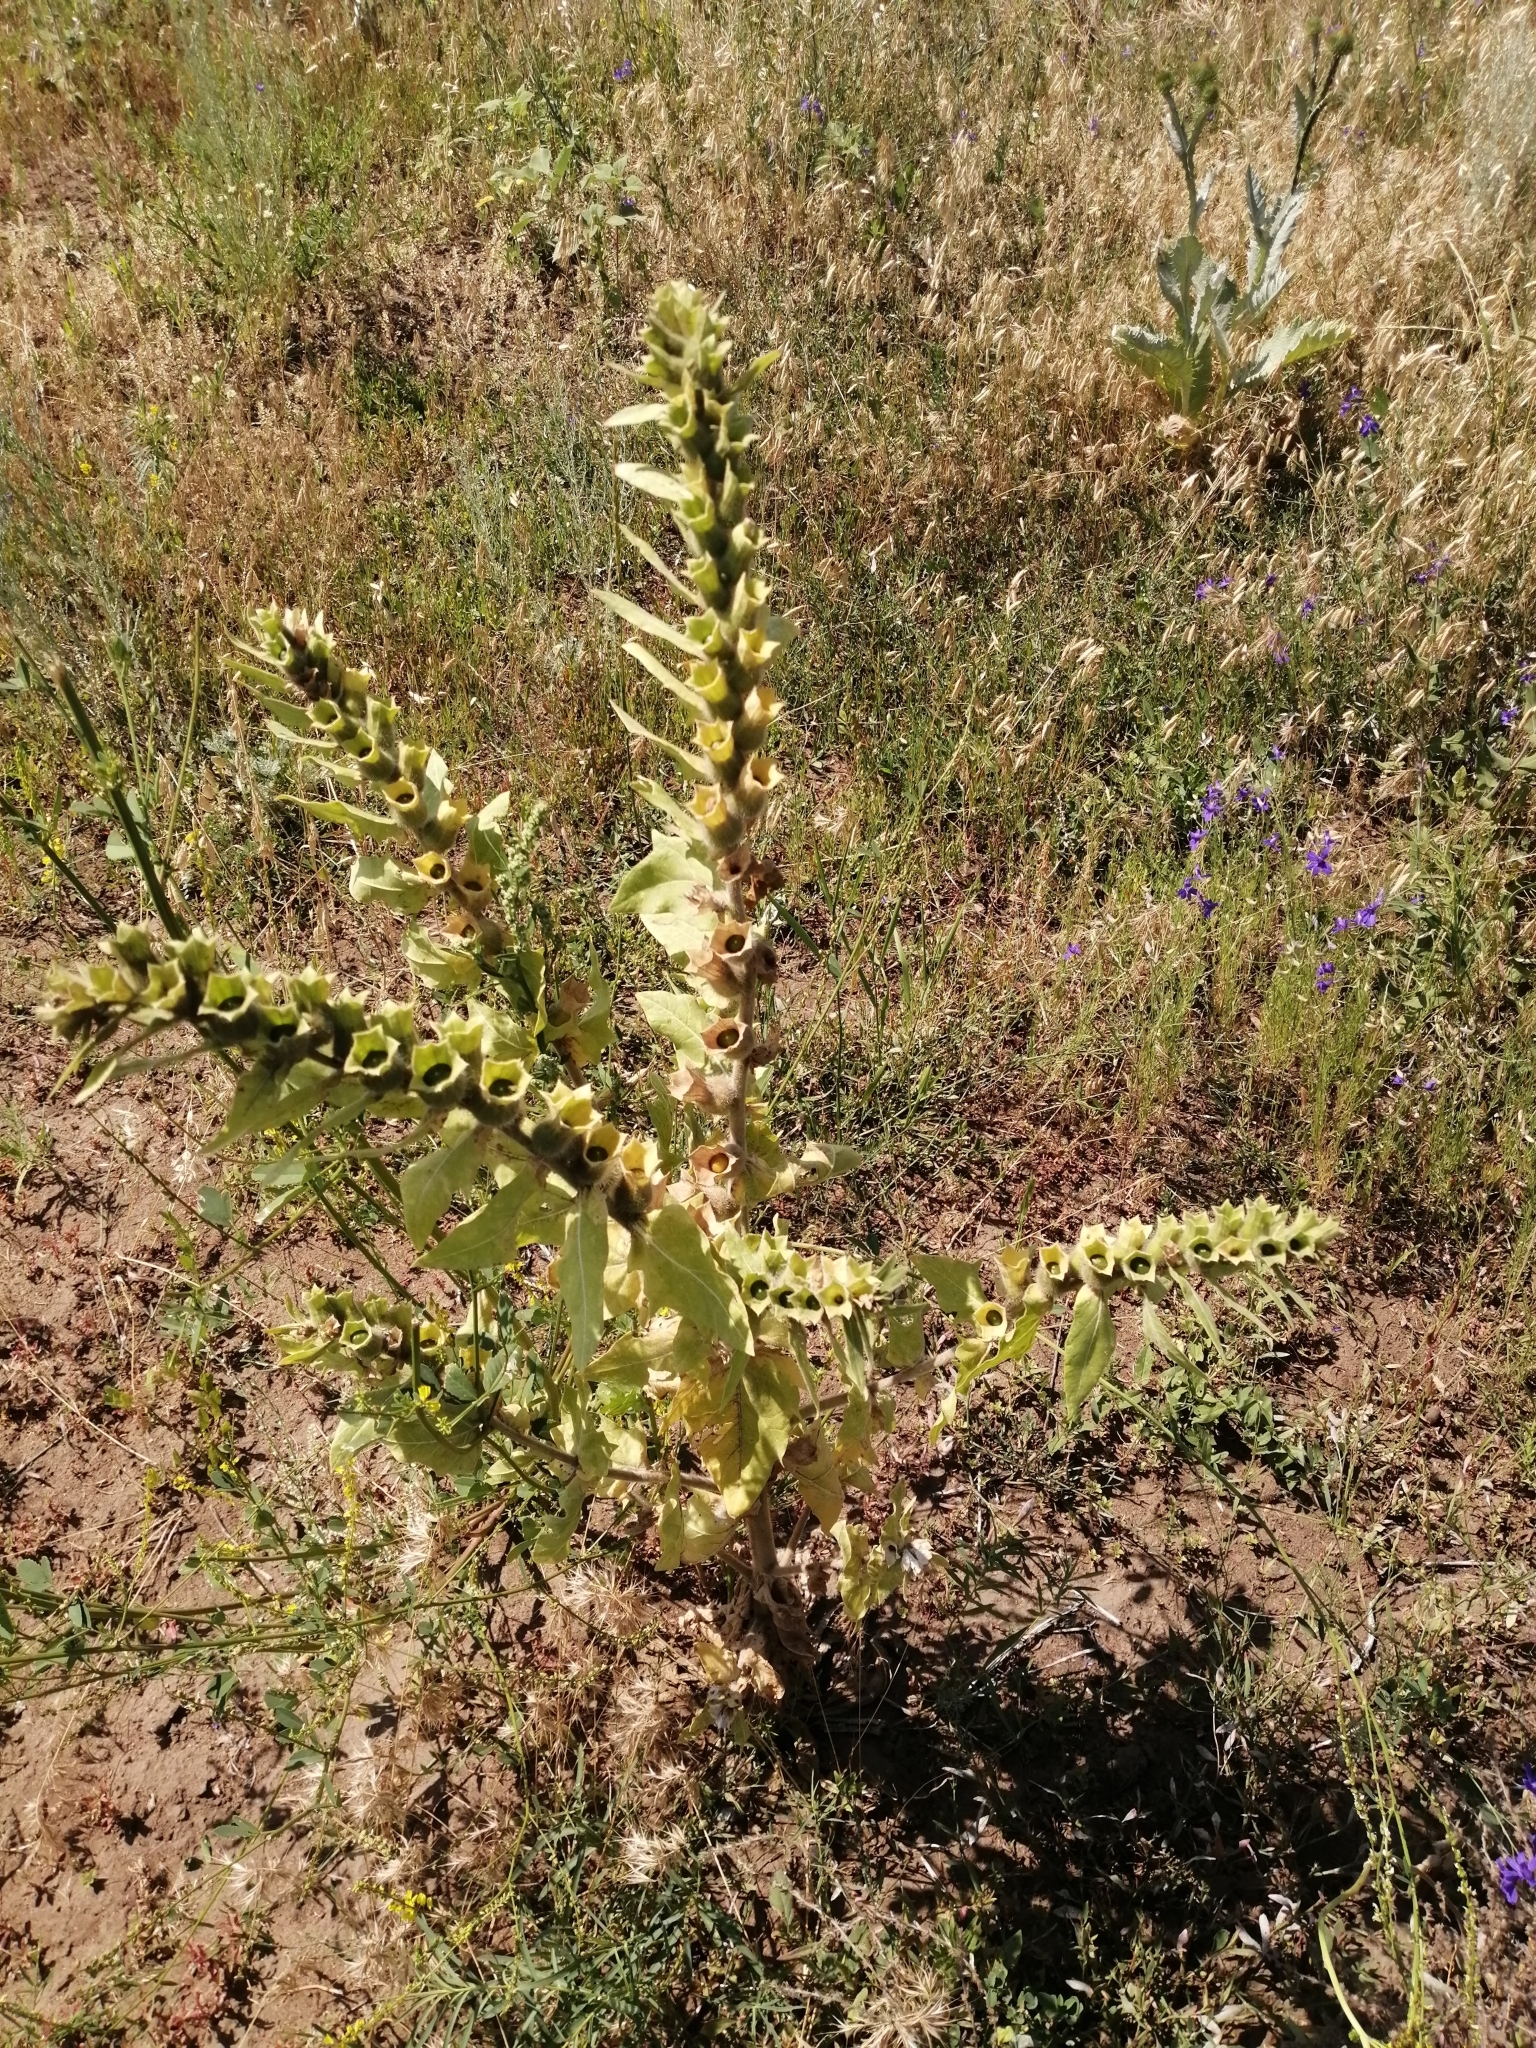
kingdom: Plantae
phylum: Tracheophyta
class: Magnoliopsida
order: Solanales
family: Solanaceae
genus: Hyoscyamus
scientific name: Hyoscyamus niger
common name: Henbane
